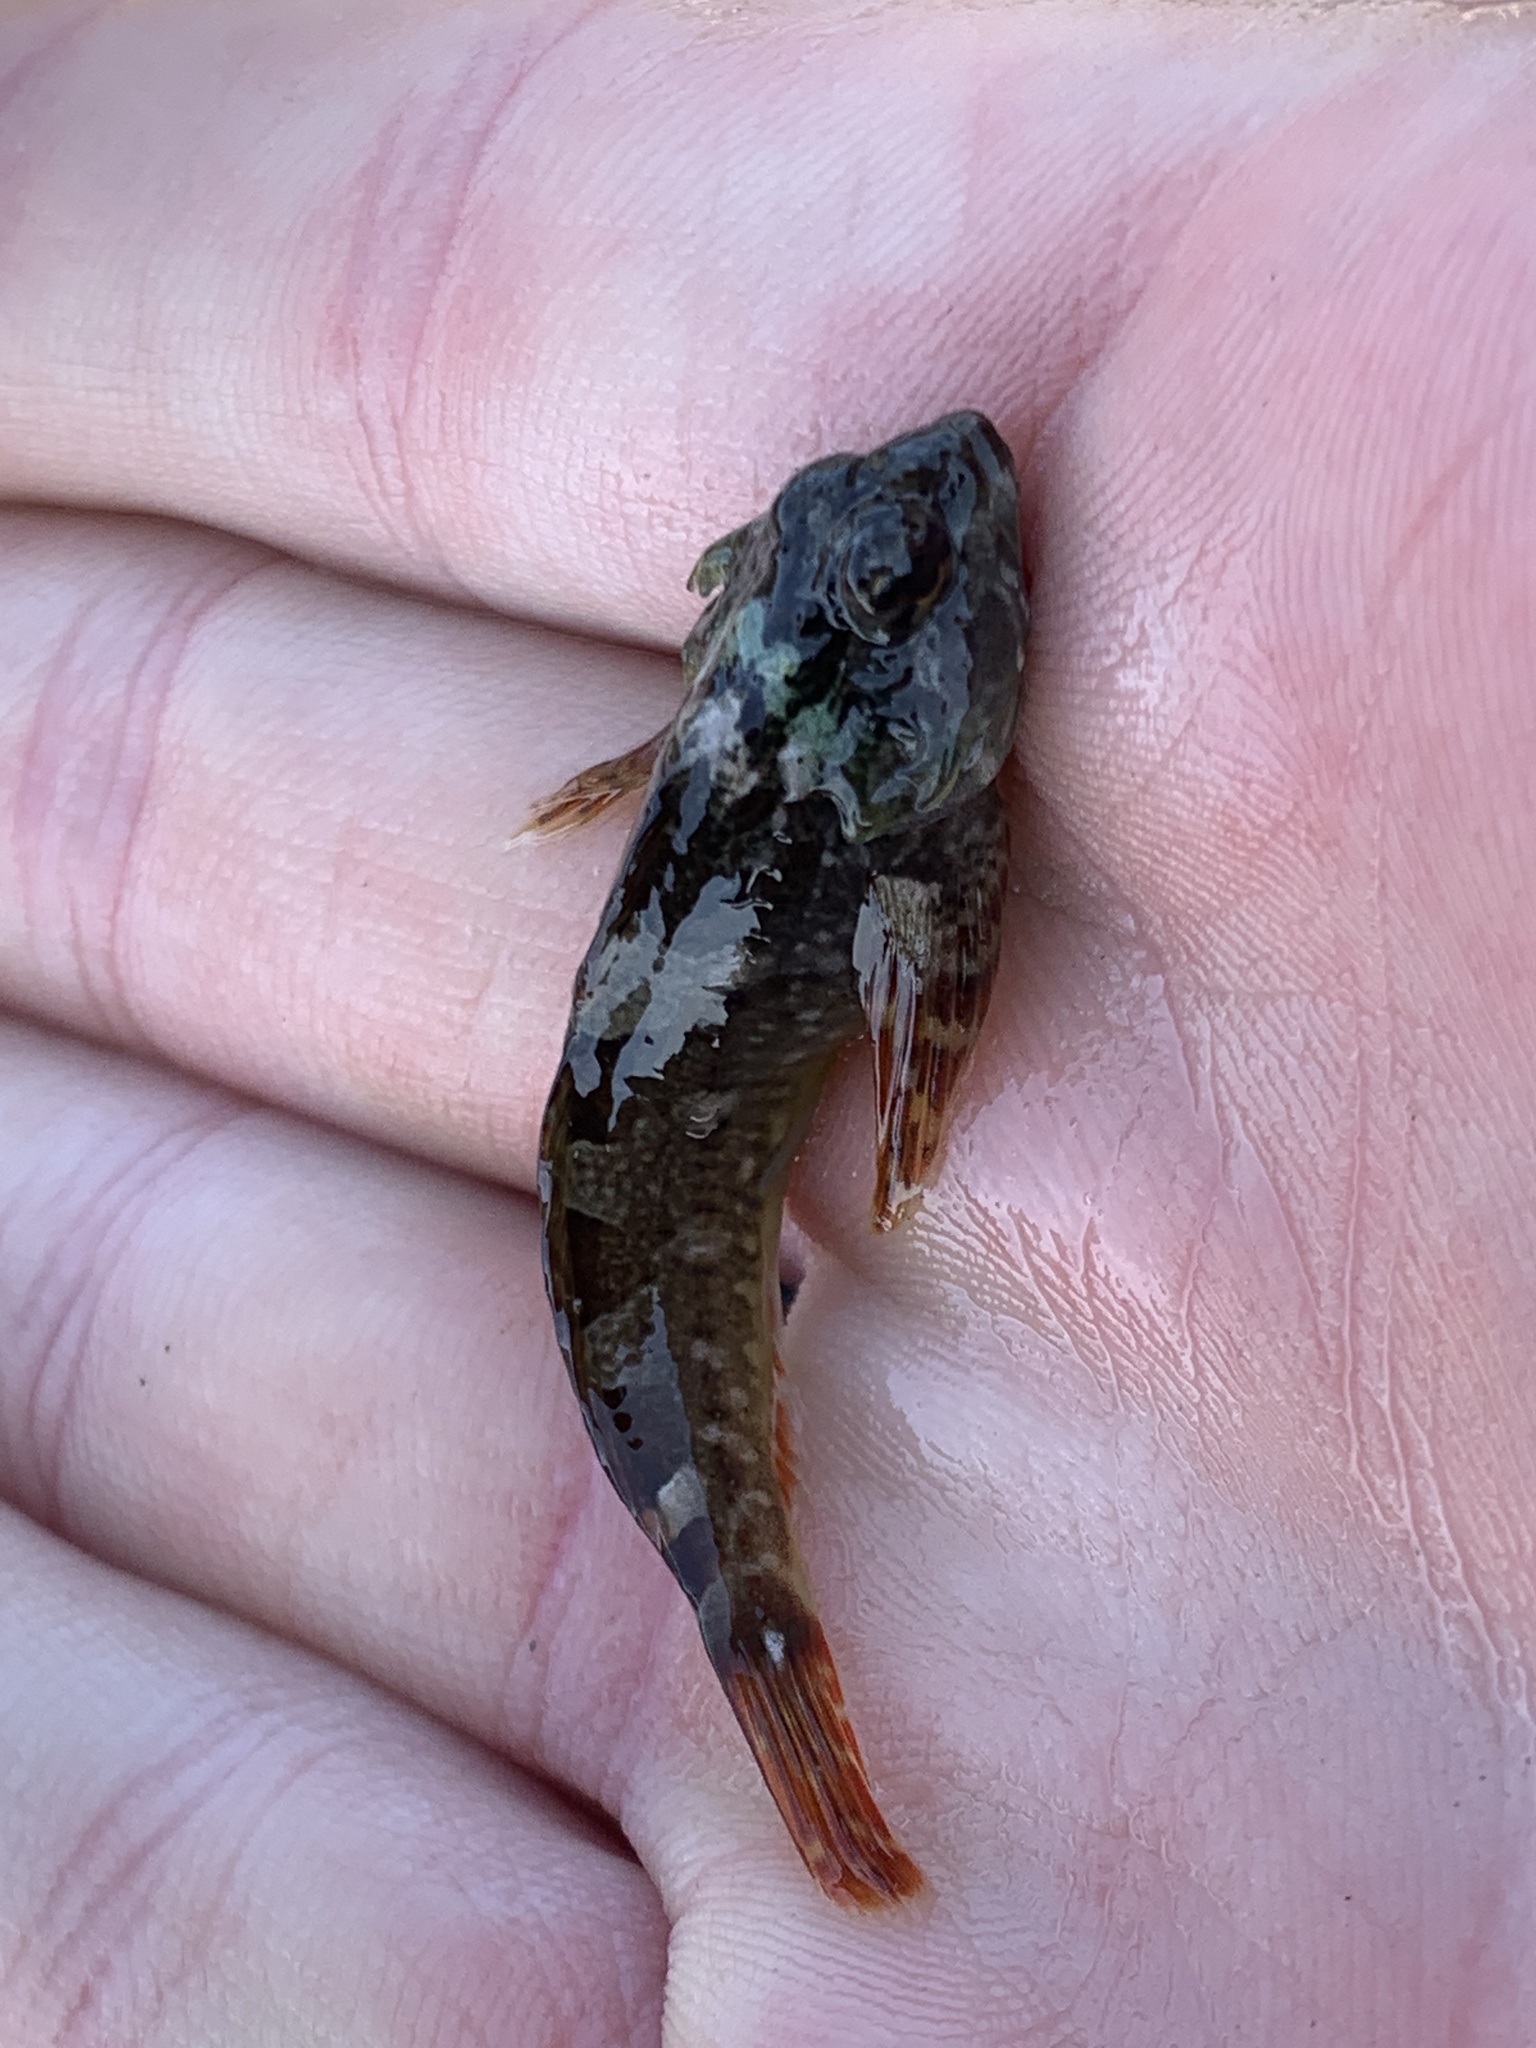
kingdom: Animalia
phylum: Chordata
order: Scorpaeniformes
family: Cottidae
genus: Oligocottus
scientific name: Oligocottus maculosus
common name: Tidepool sculpin
